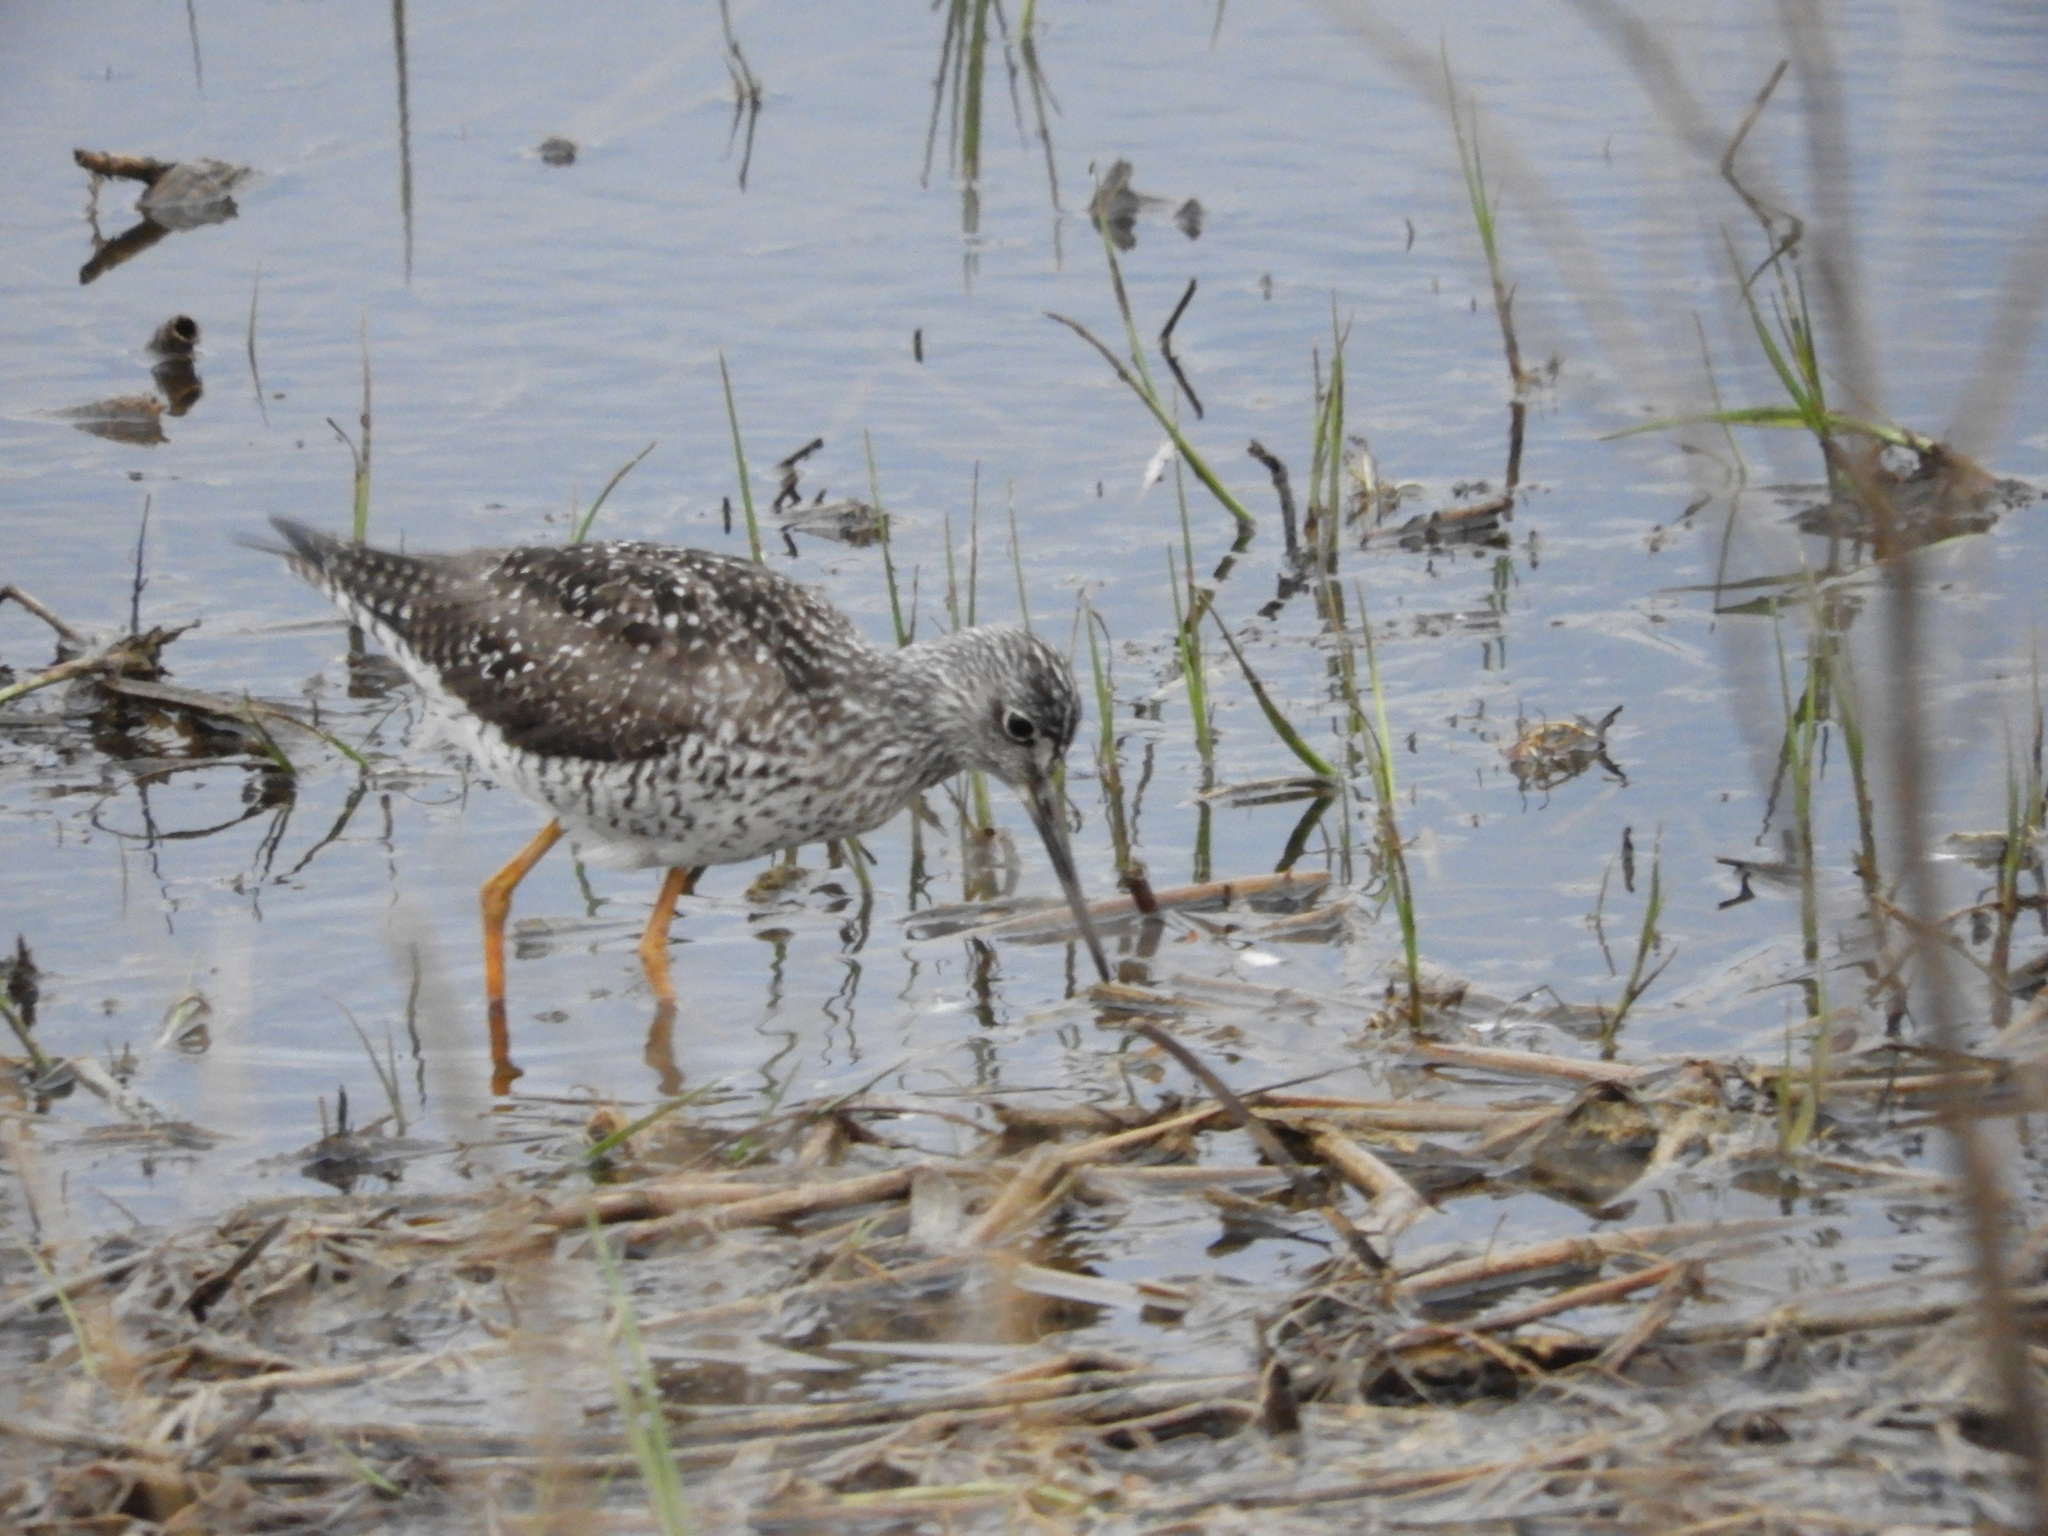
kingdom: Animalia
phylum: Chordata
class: Aves
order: Charadriiformes
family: Scolopacidae
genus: Tringa
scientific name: Tringa melanoleuca
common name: Greater yellowlegs
